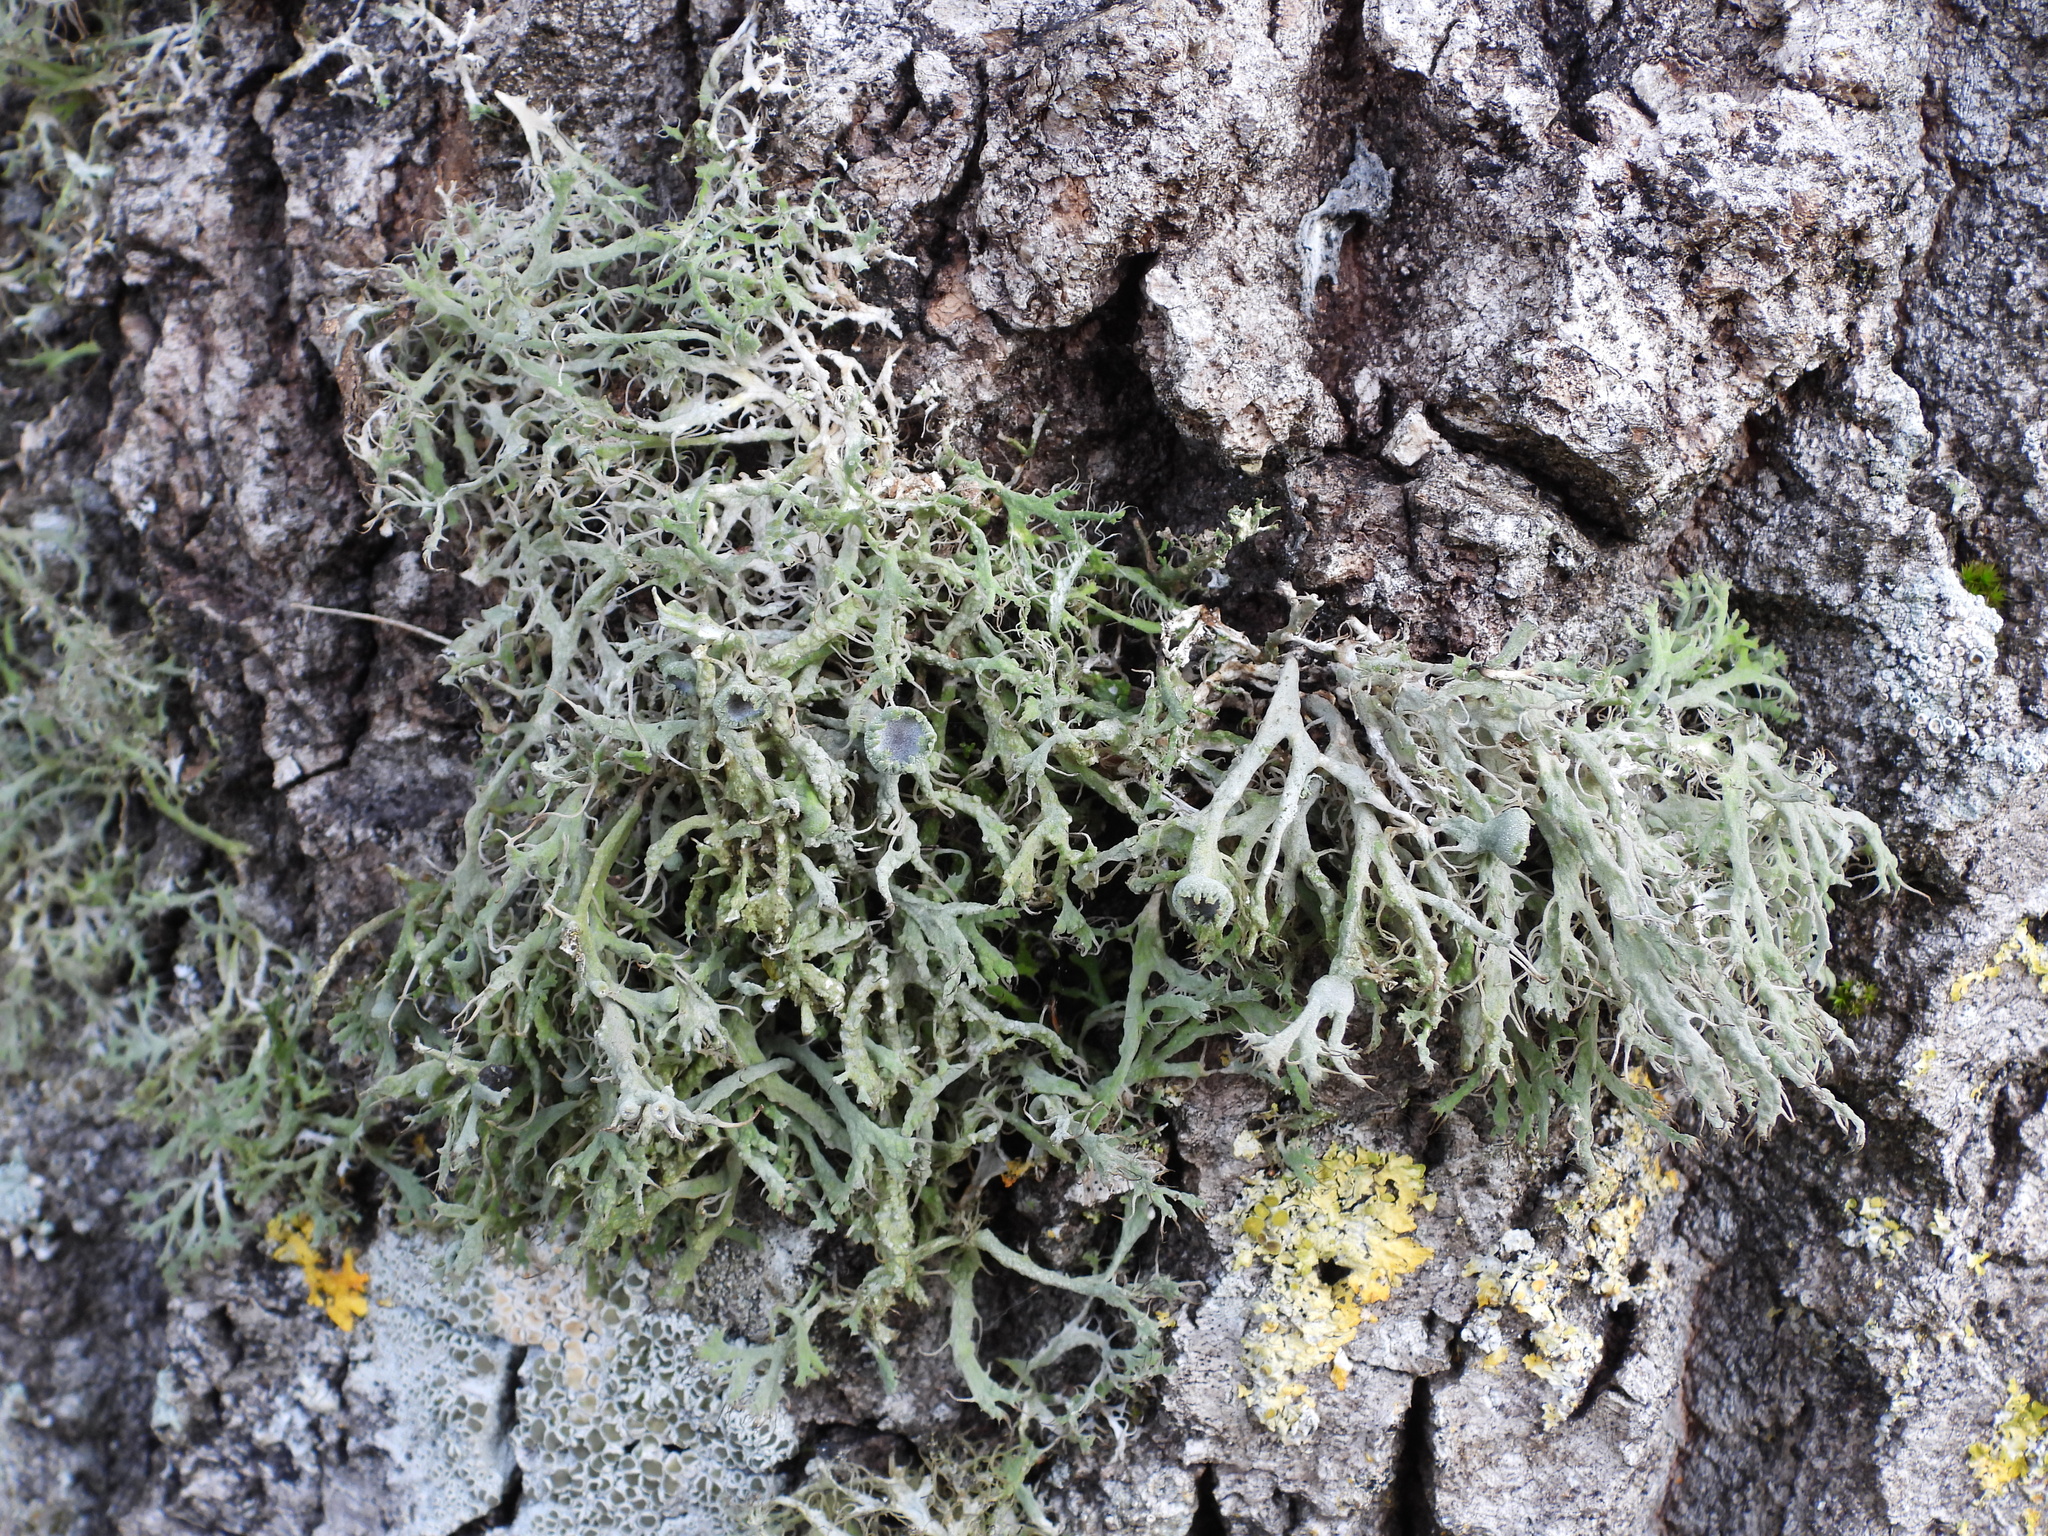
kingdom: Fungi
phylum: Ascomycota
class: Lecanoromycetes
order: Caliciales
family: Physciaceae
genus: Anaptychia
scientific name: Anaptychia ciliaris
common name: Great ciliated lichen
